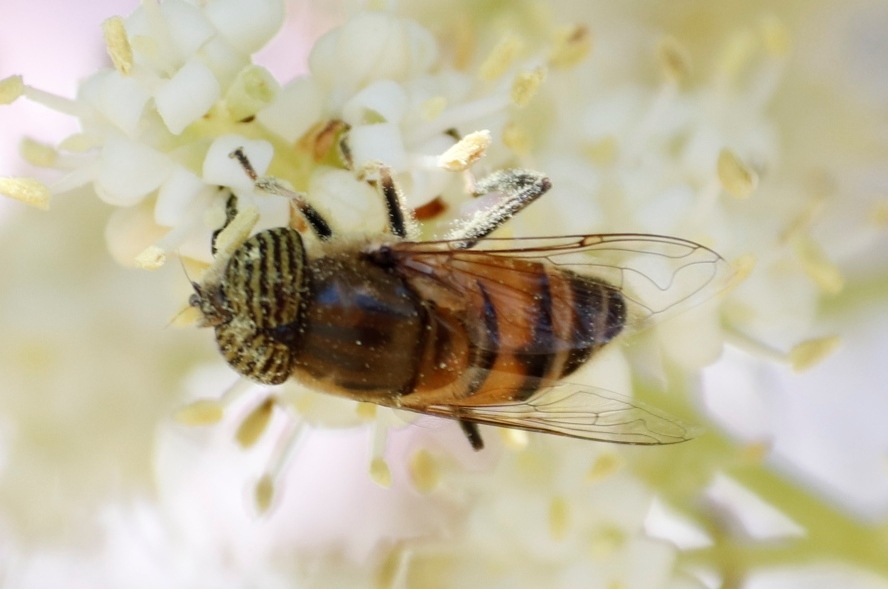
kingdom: Animalia
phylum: Arthropoda
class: Insecta
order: Diptera
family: Syrphidae
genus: Eristalinus
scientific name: Eristalinus taeniops
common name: Syrphid fly
